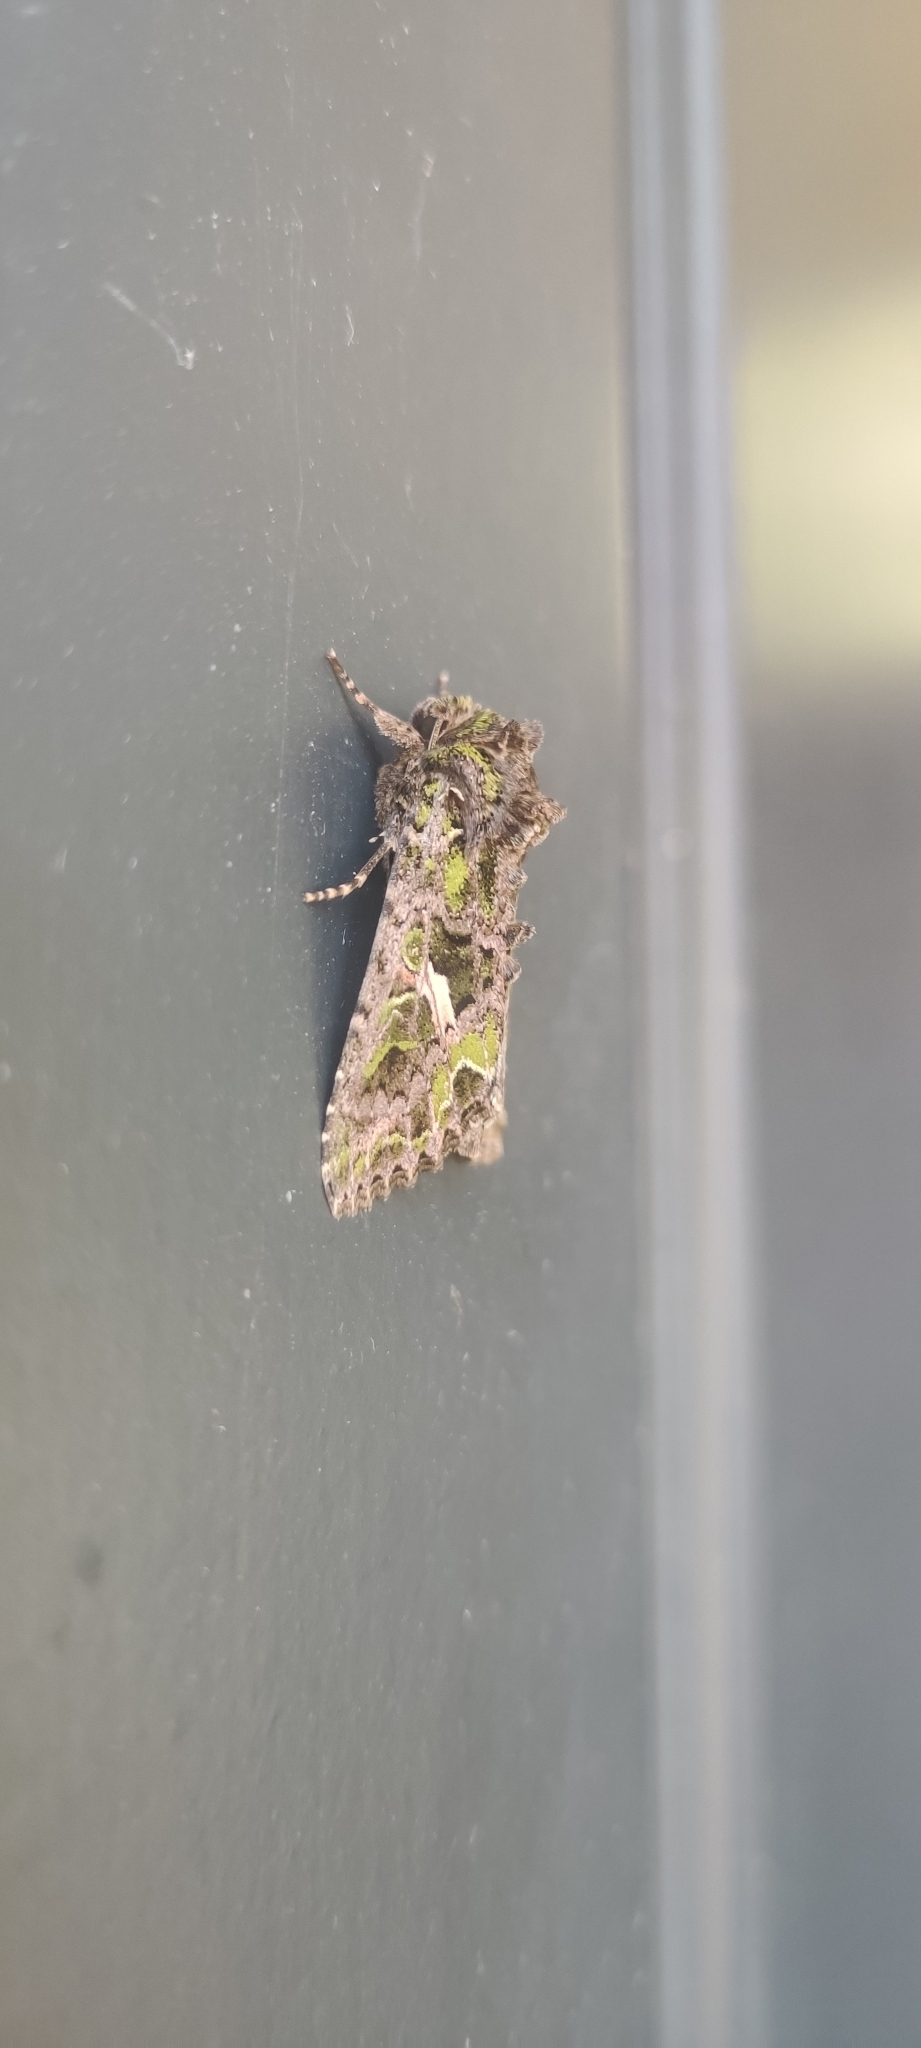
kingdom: Animalia
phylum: Arthropoda
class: Insecta
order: Lepidoptera
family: Noctuidae
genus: Trachea
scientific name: Trachea atriplicis
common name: Orache moth
